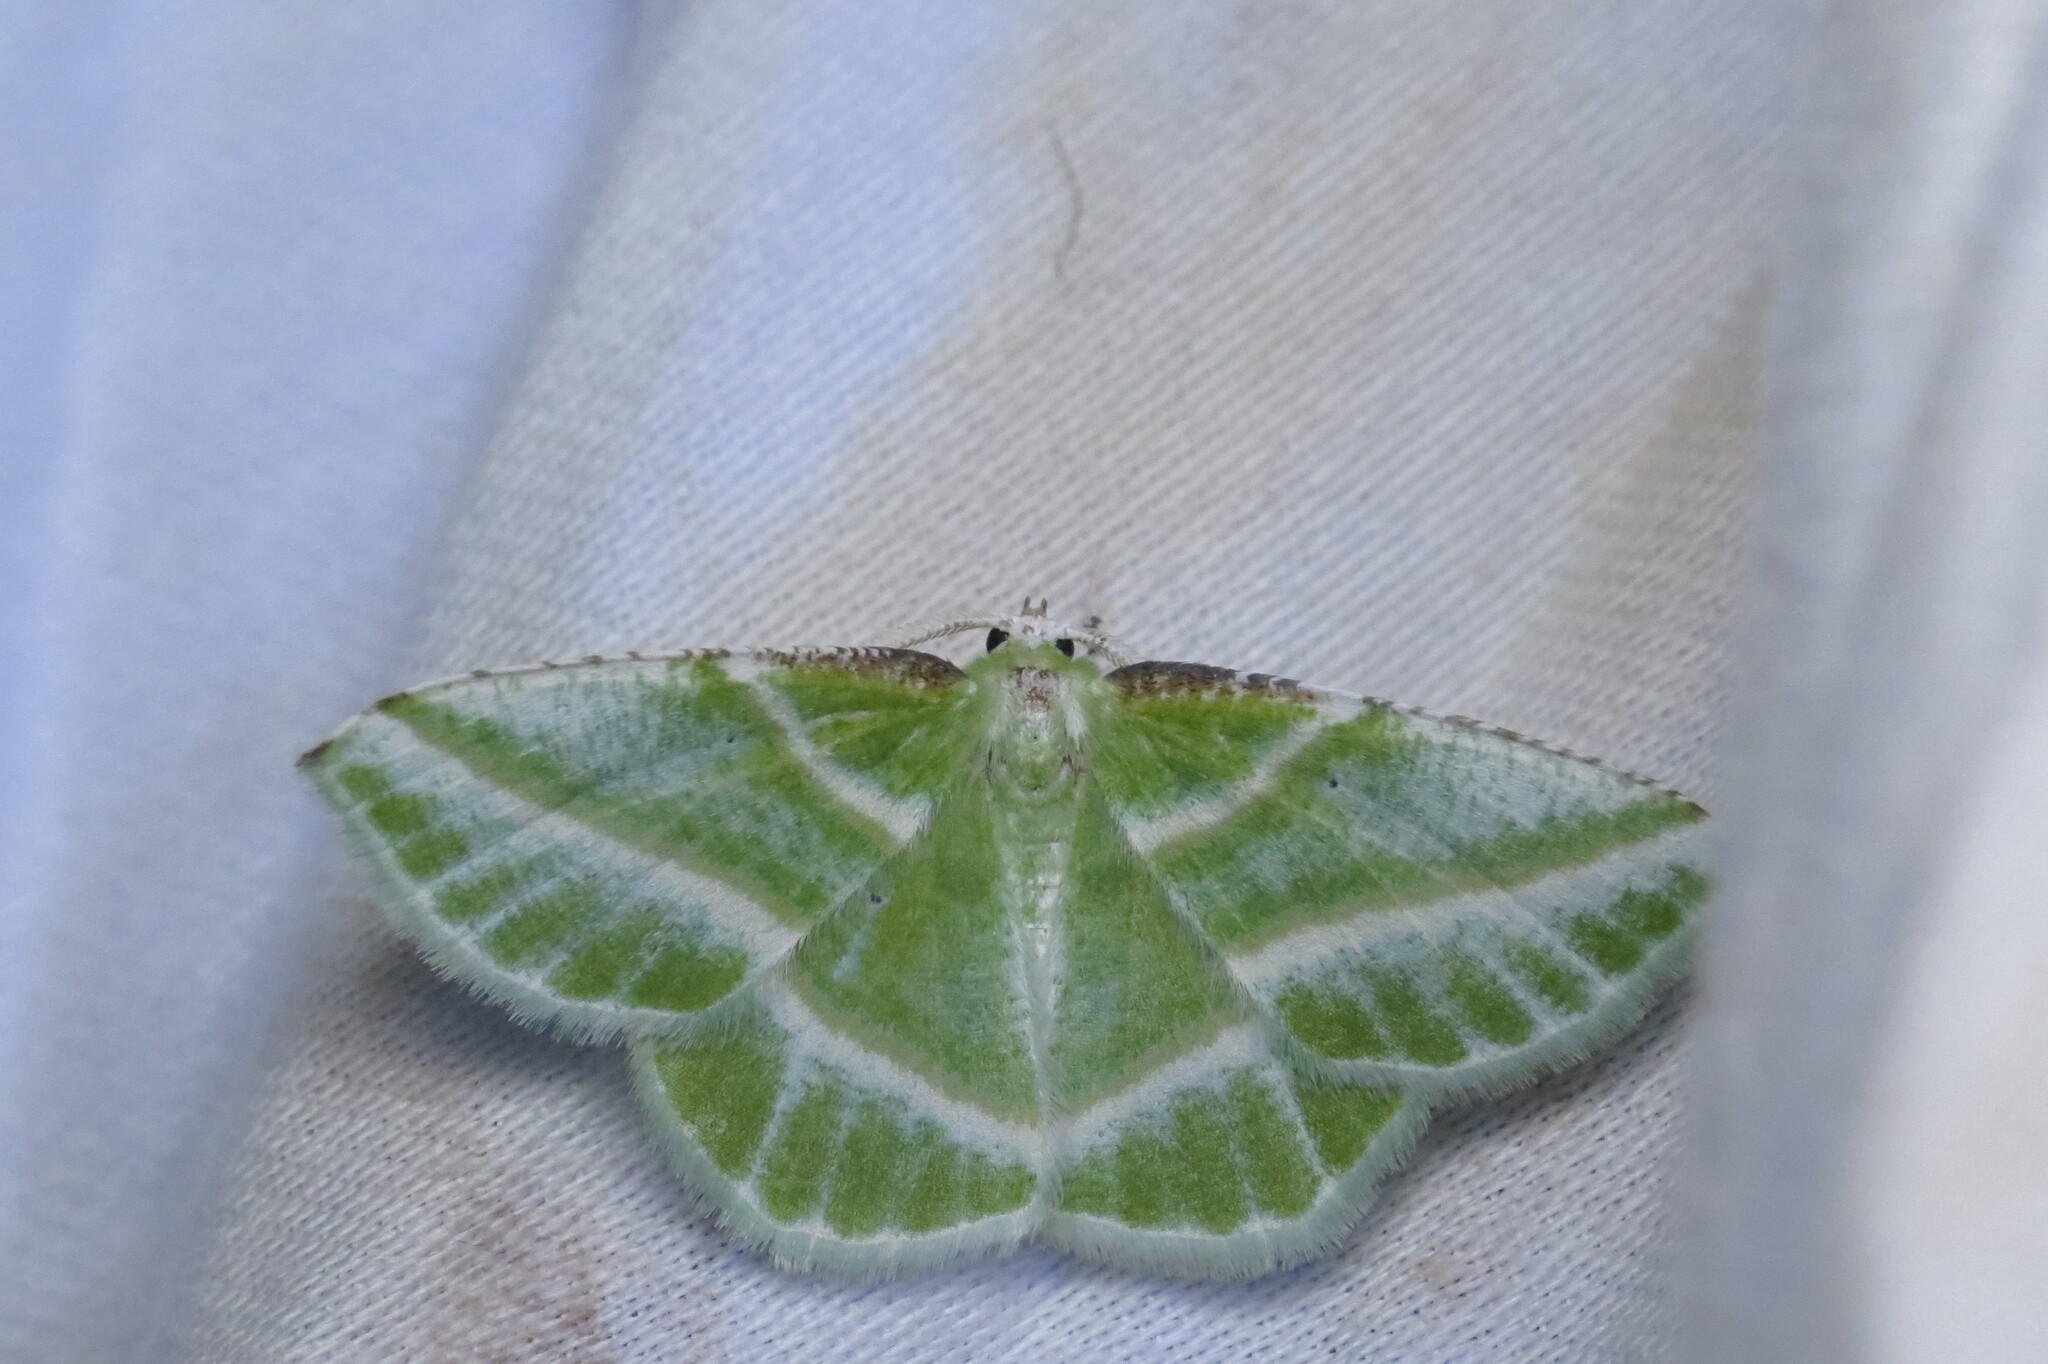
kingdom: Animalia
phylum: Arthropoda
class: Insecta
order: Lepidoptera
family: Geometridae
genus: Dichorda
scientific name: Dichorda iridaria
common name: Showy emerald
